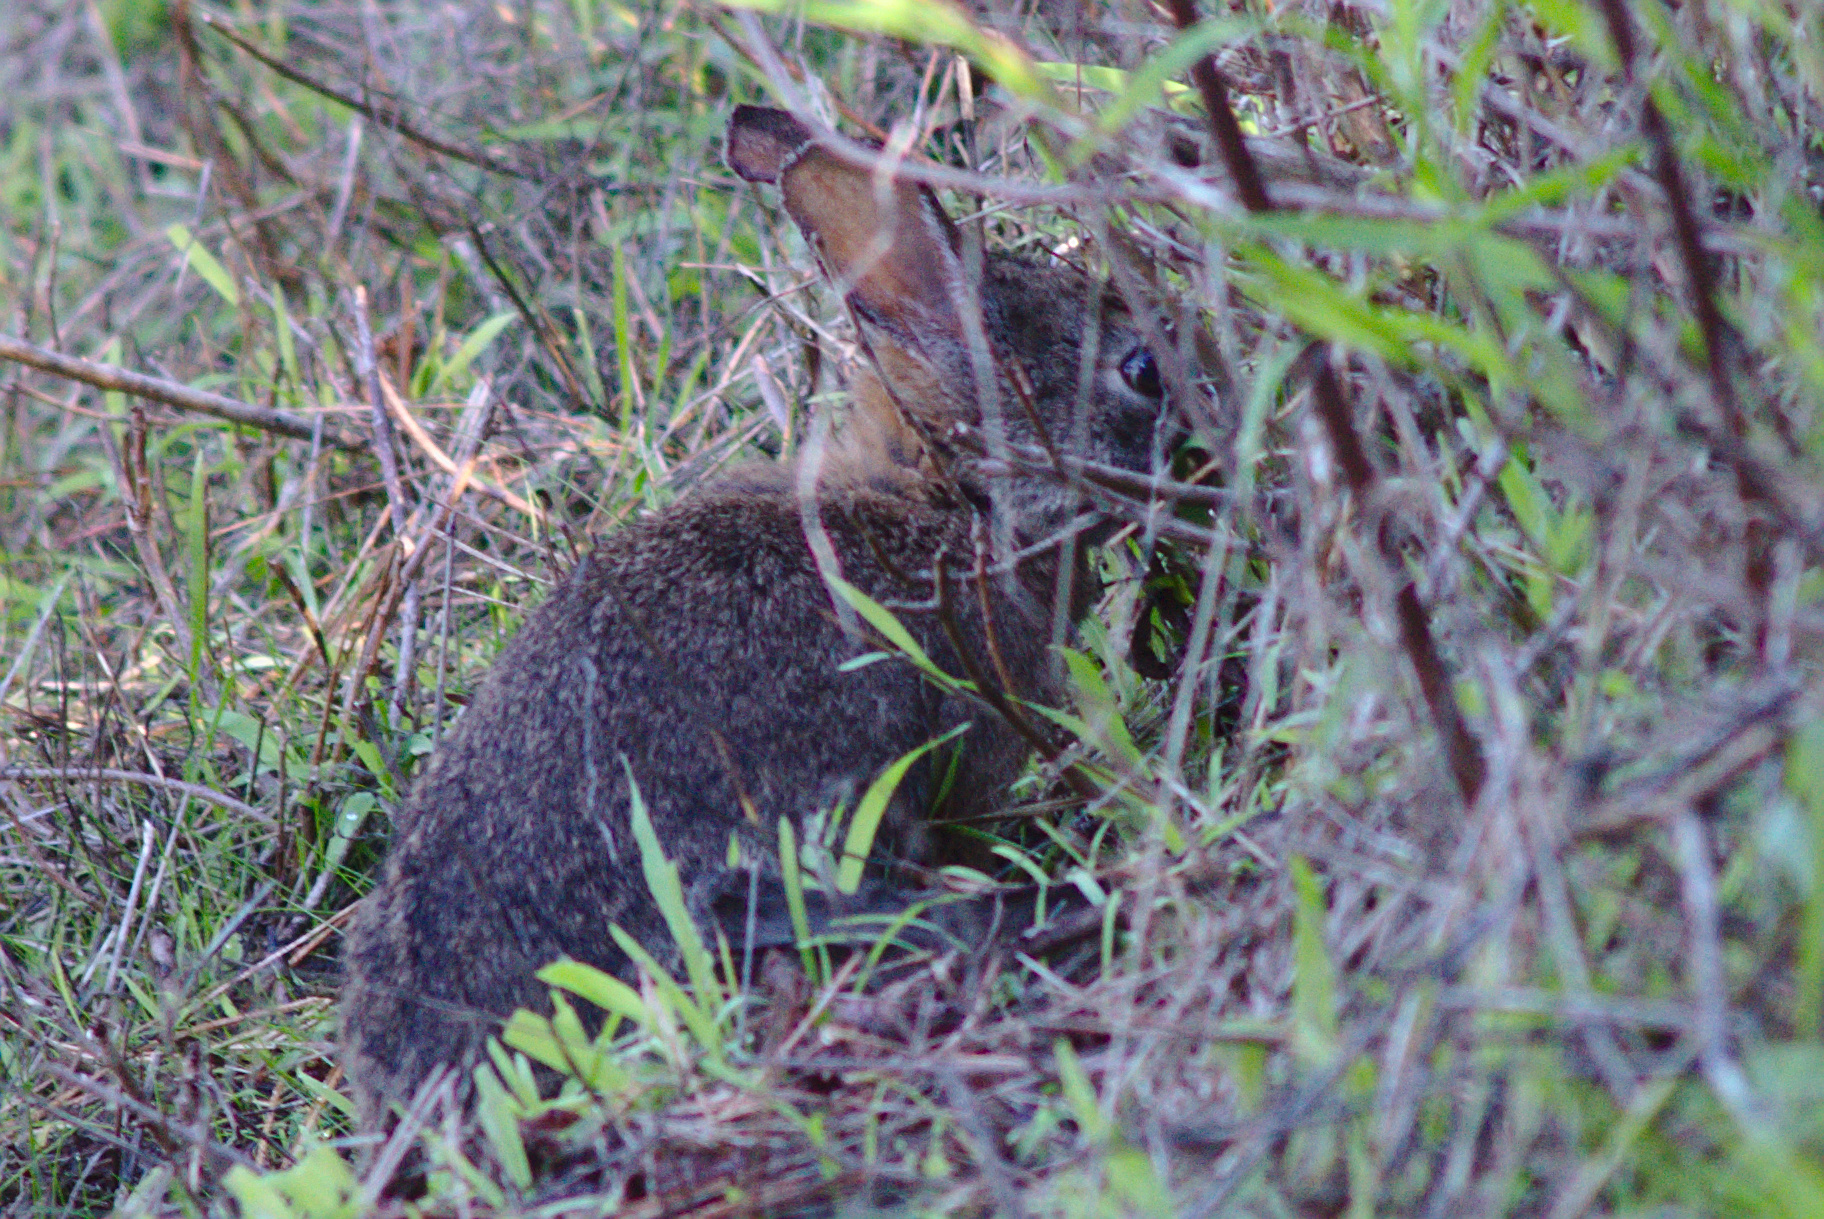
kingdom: Animalia
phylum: Chordata
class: Mammalia
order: Lagomorpha
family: Leporidae
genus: Sylvilagus
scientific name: Sylvilagus bachmani
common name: Brush rabbit
